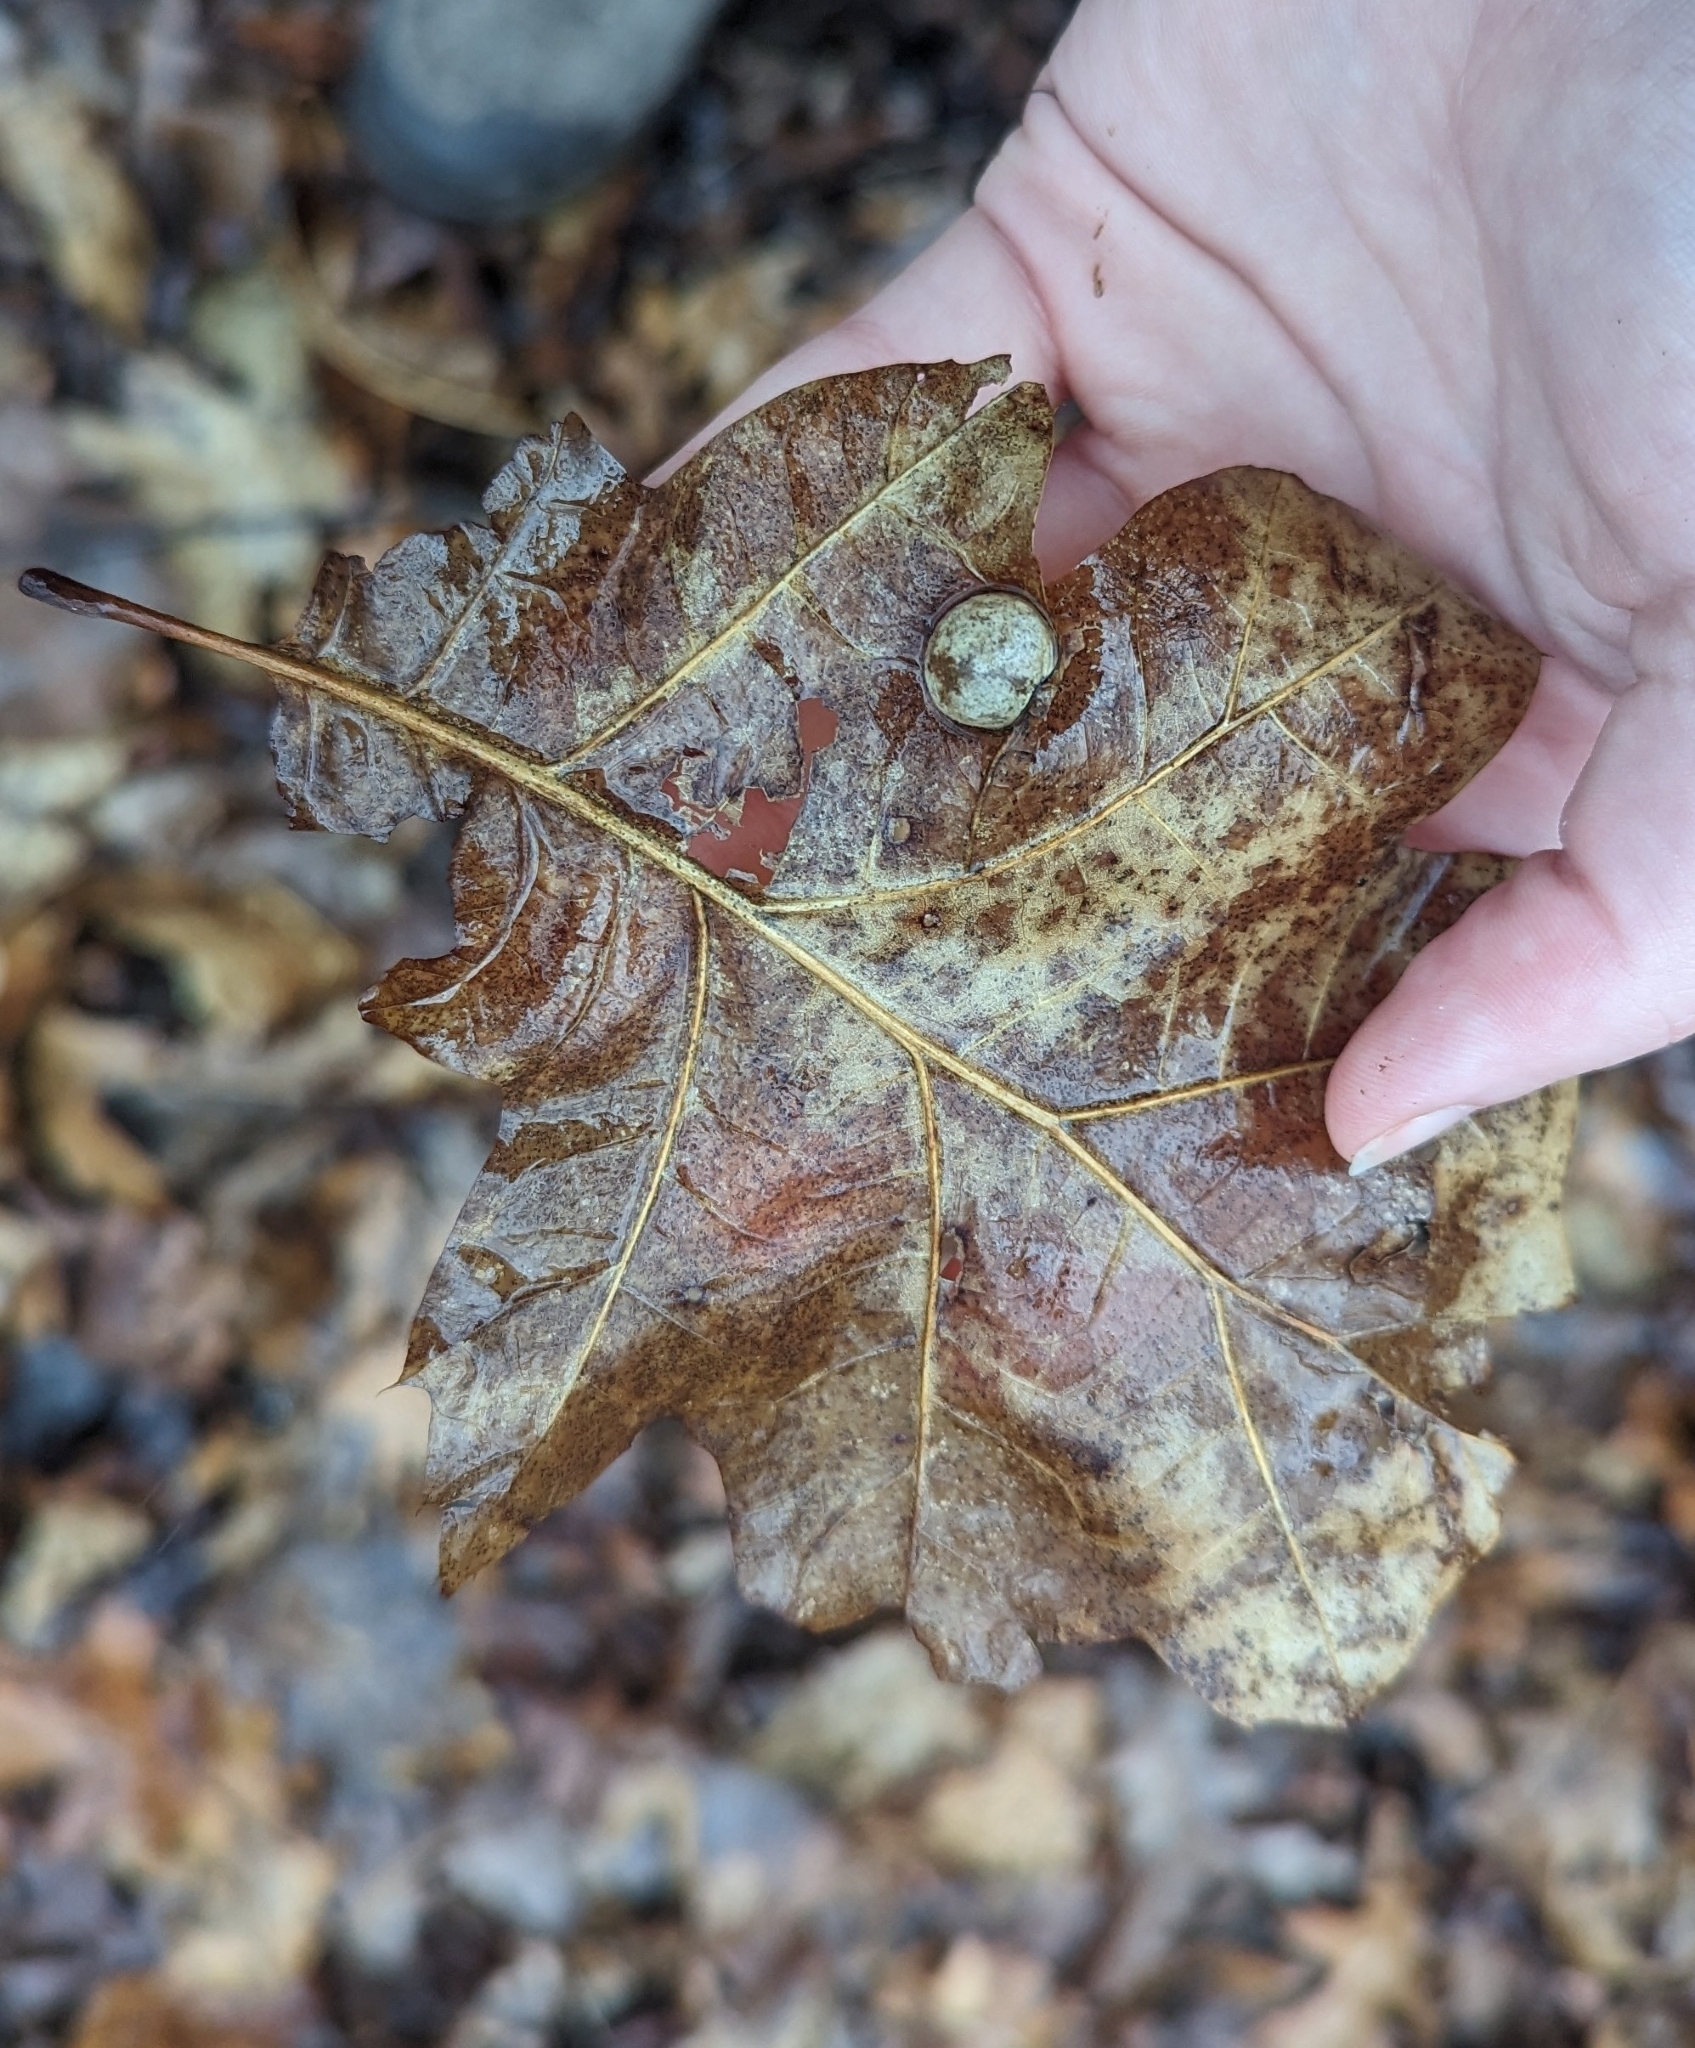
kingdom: Animalia
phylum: Arthropoda
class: Insecta
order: Hymenoptera
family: Cynipidae
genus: Amphibolips
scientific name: Amphibolips
